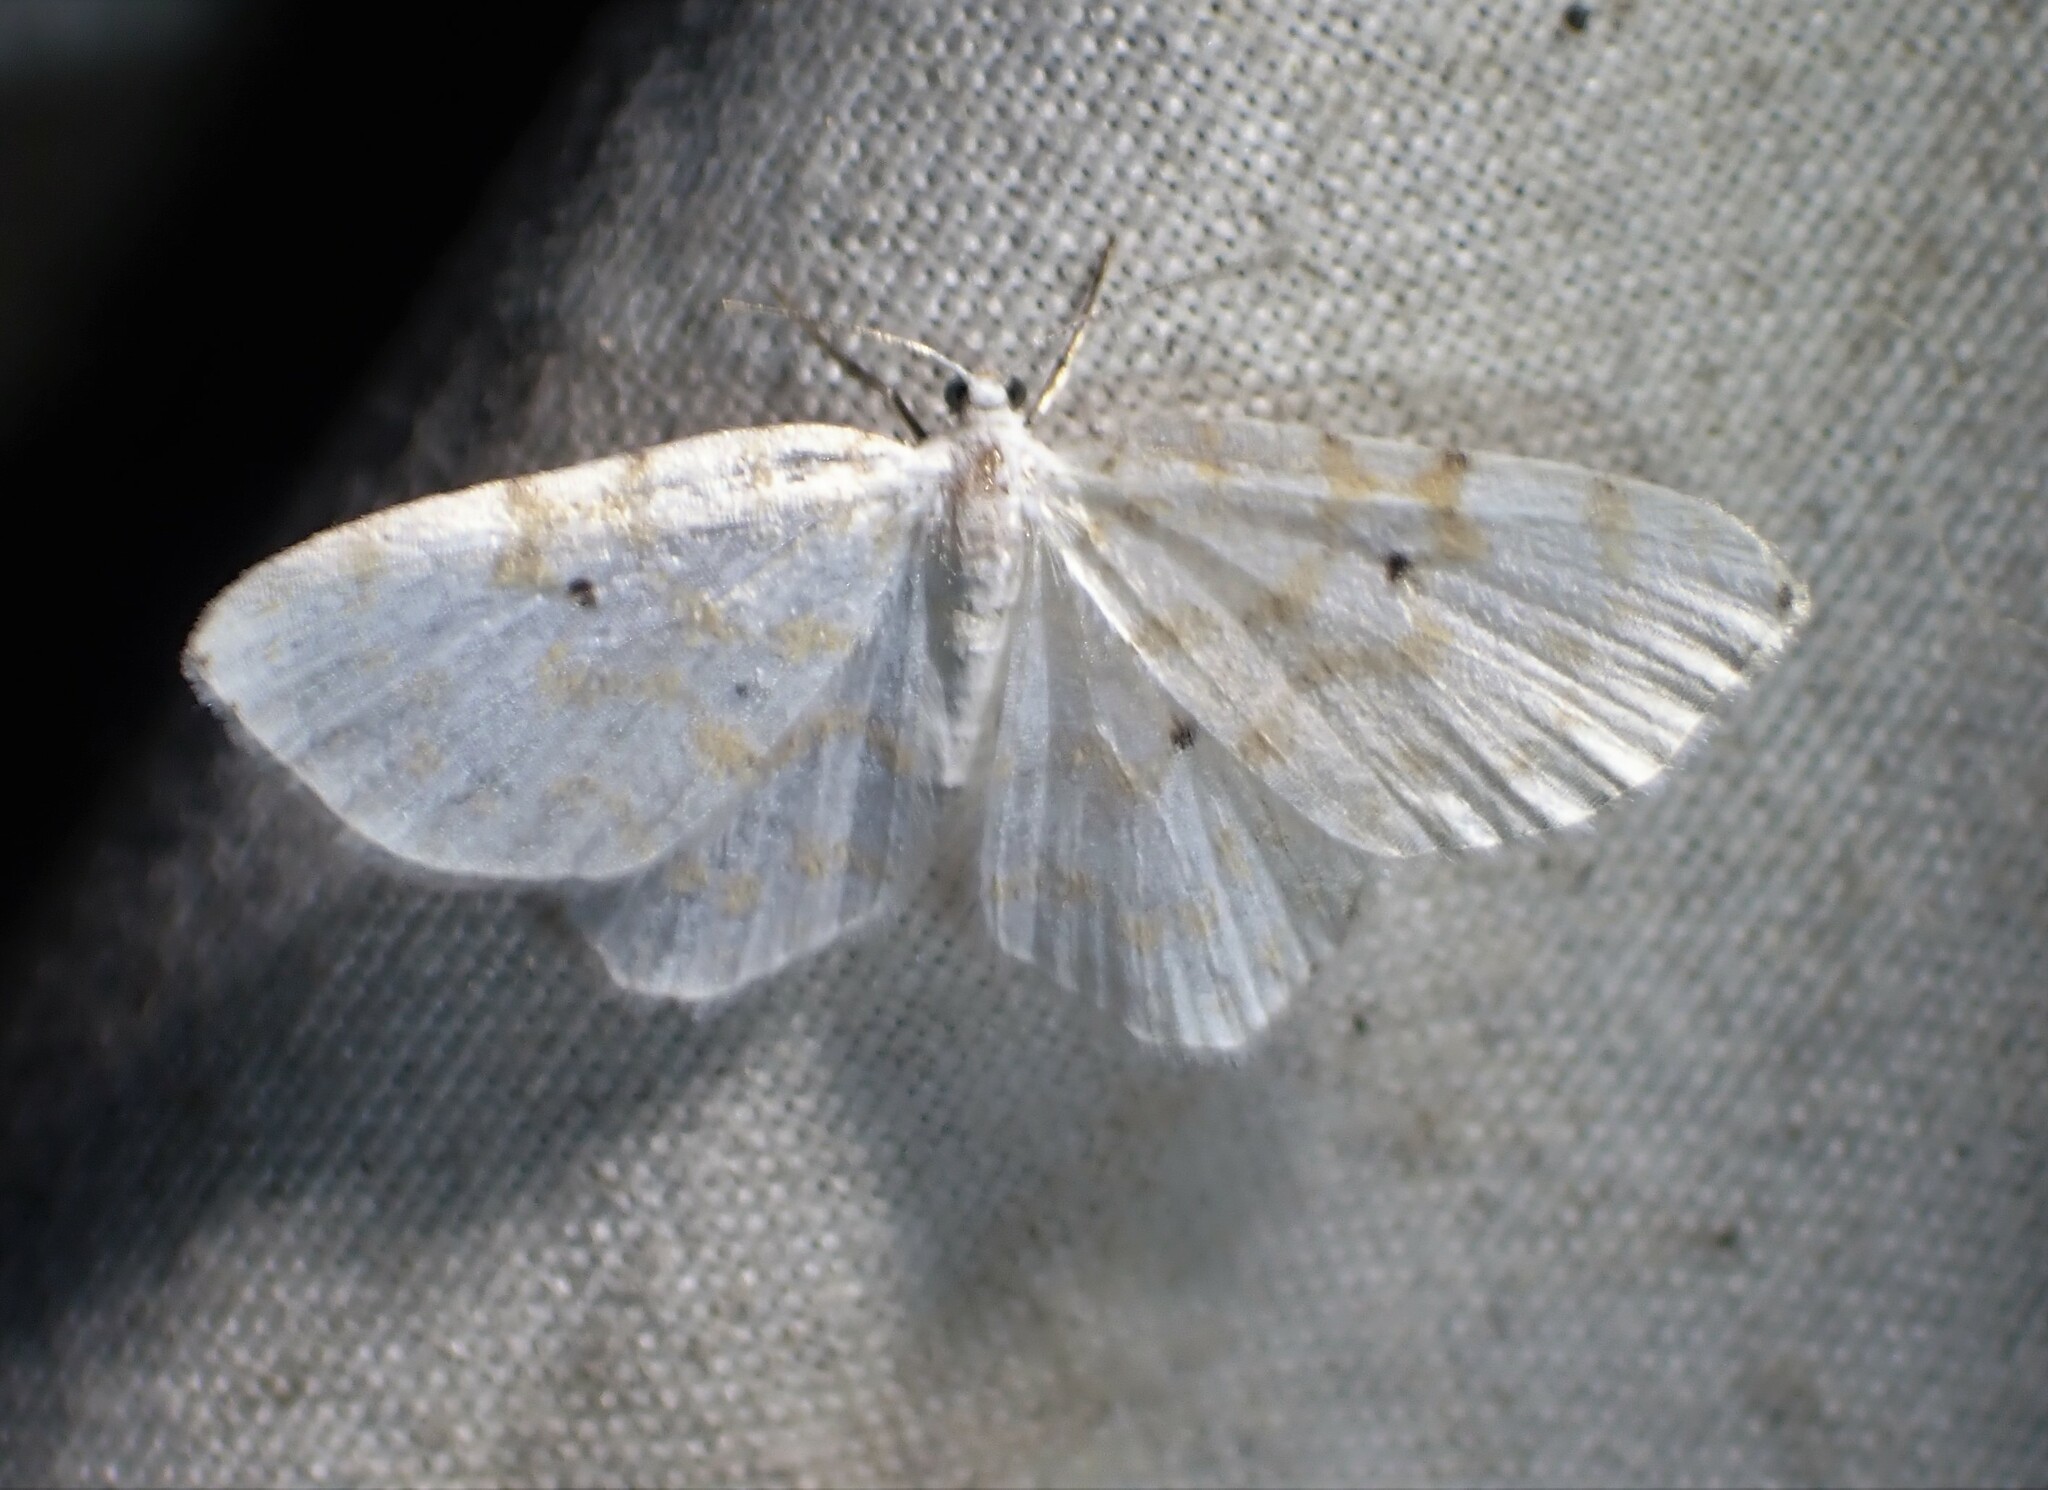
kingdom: Animalia
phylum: Arthropoda
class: Insecta
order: Lepidoptera
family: Geometridae
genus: Hydrelia
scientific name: Hydrelia albifera
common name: Fragile white carpet
